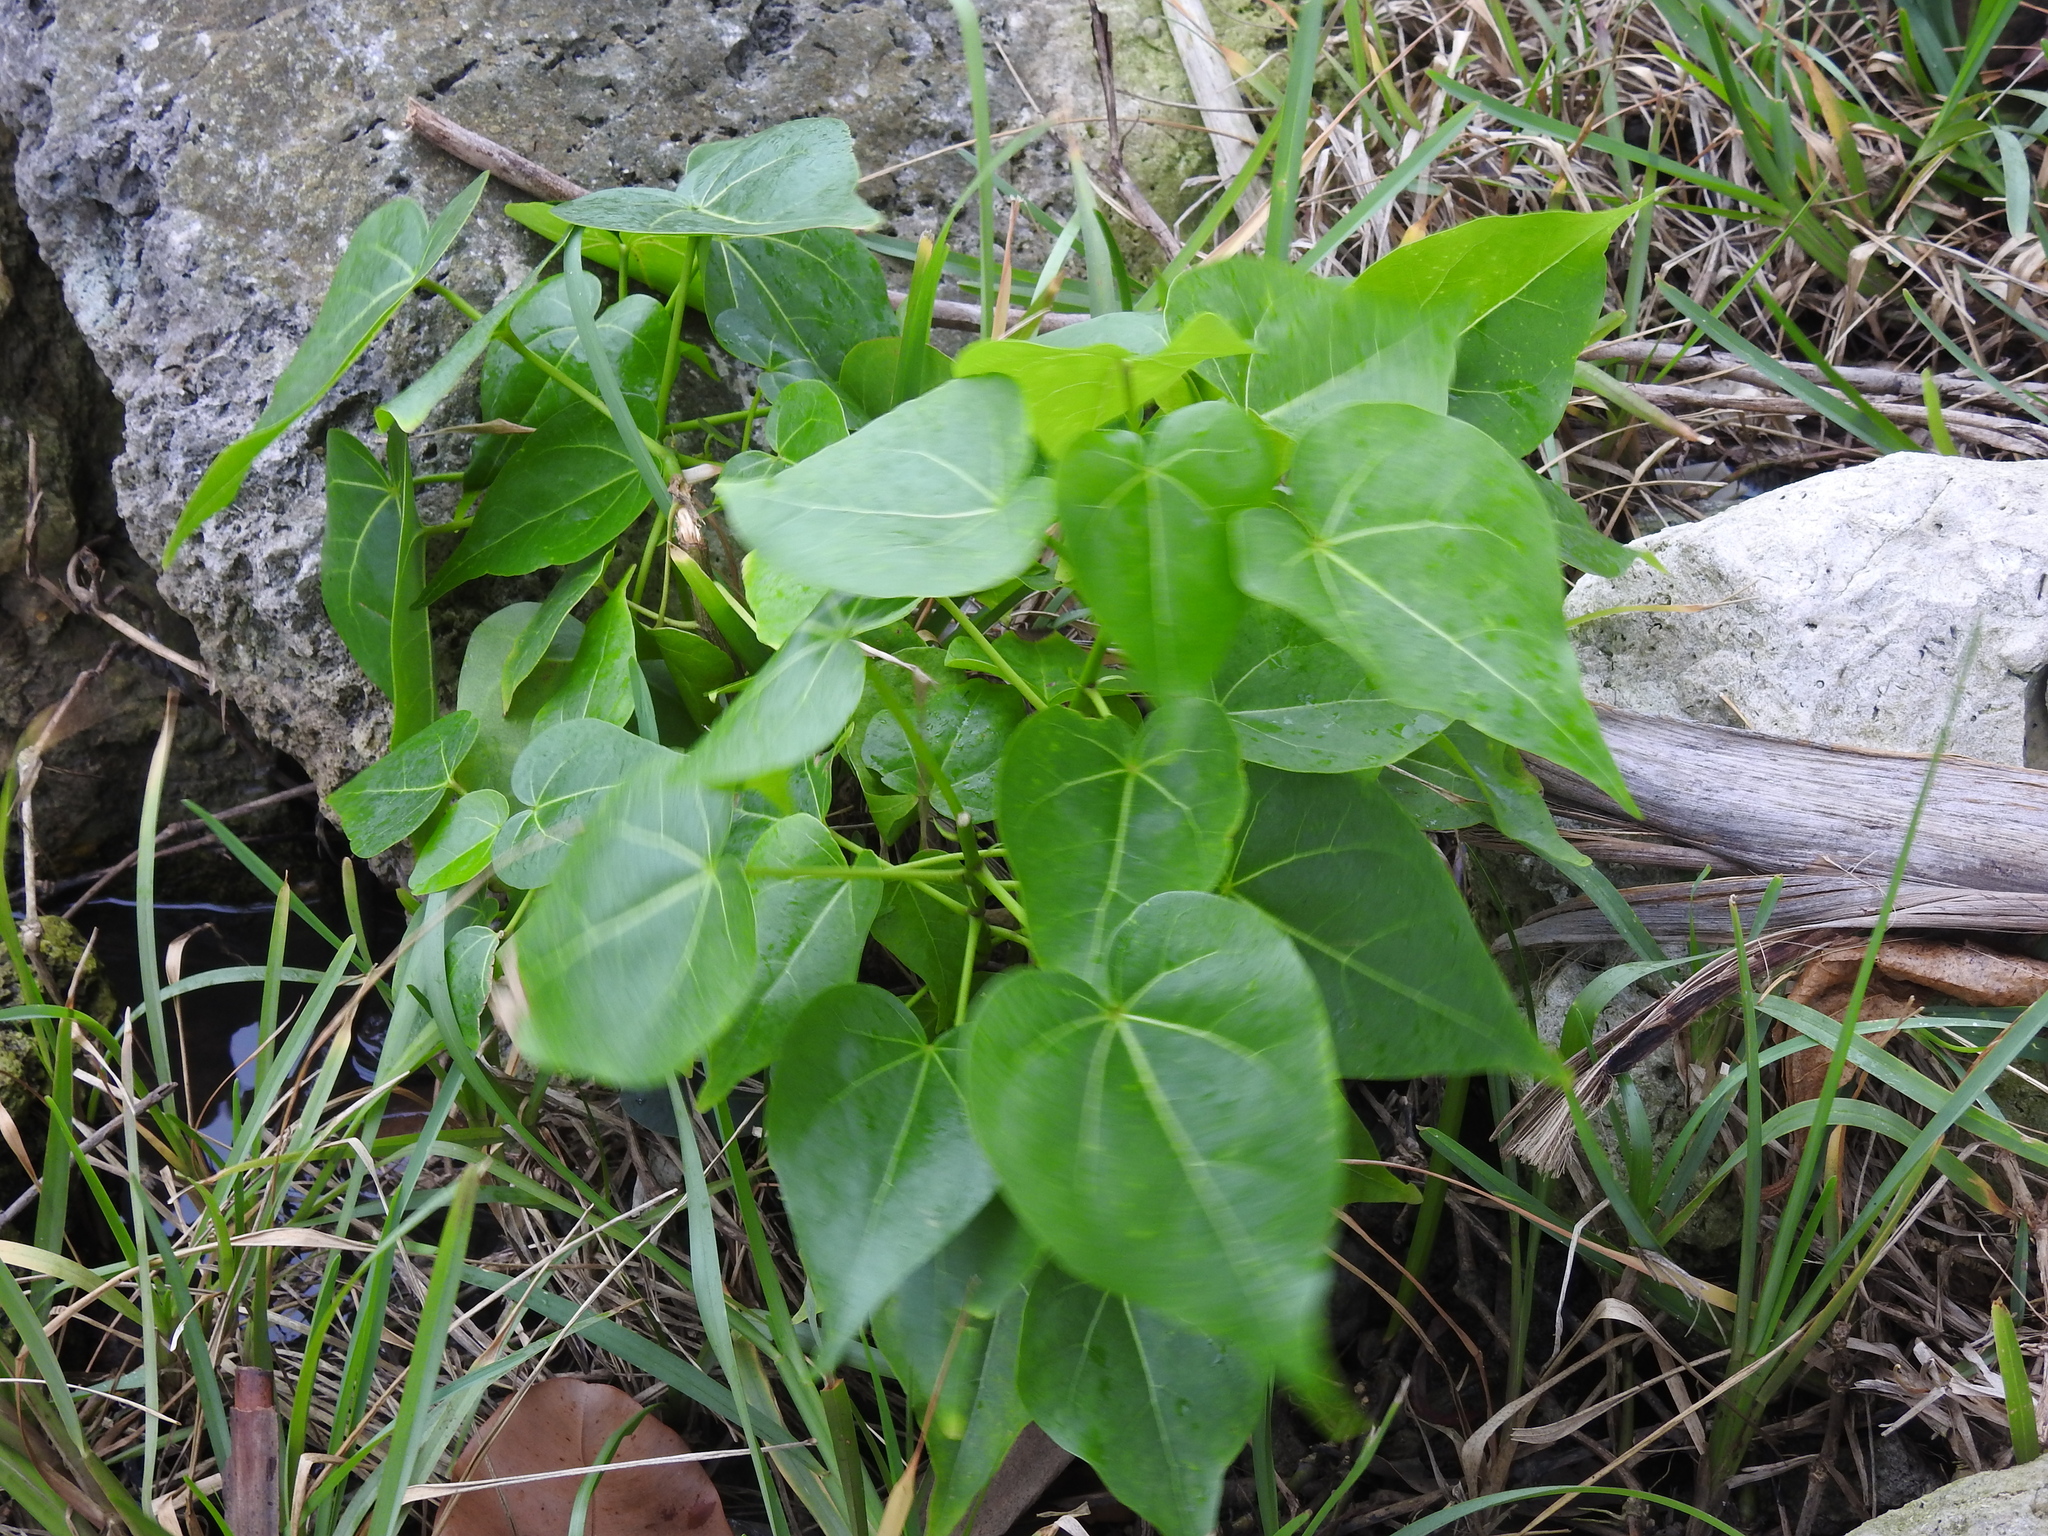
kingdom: Plantae
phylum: Tracheophyta
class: Magnoliopsida
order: Malvales
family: Malvaceae
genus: Thespesia
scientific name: Thespesia populnea
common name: Seaside mahoe
